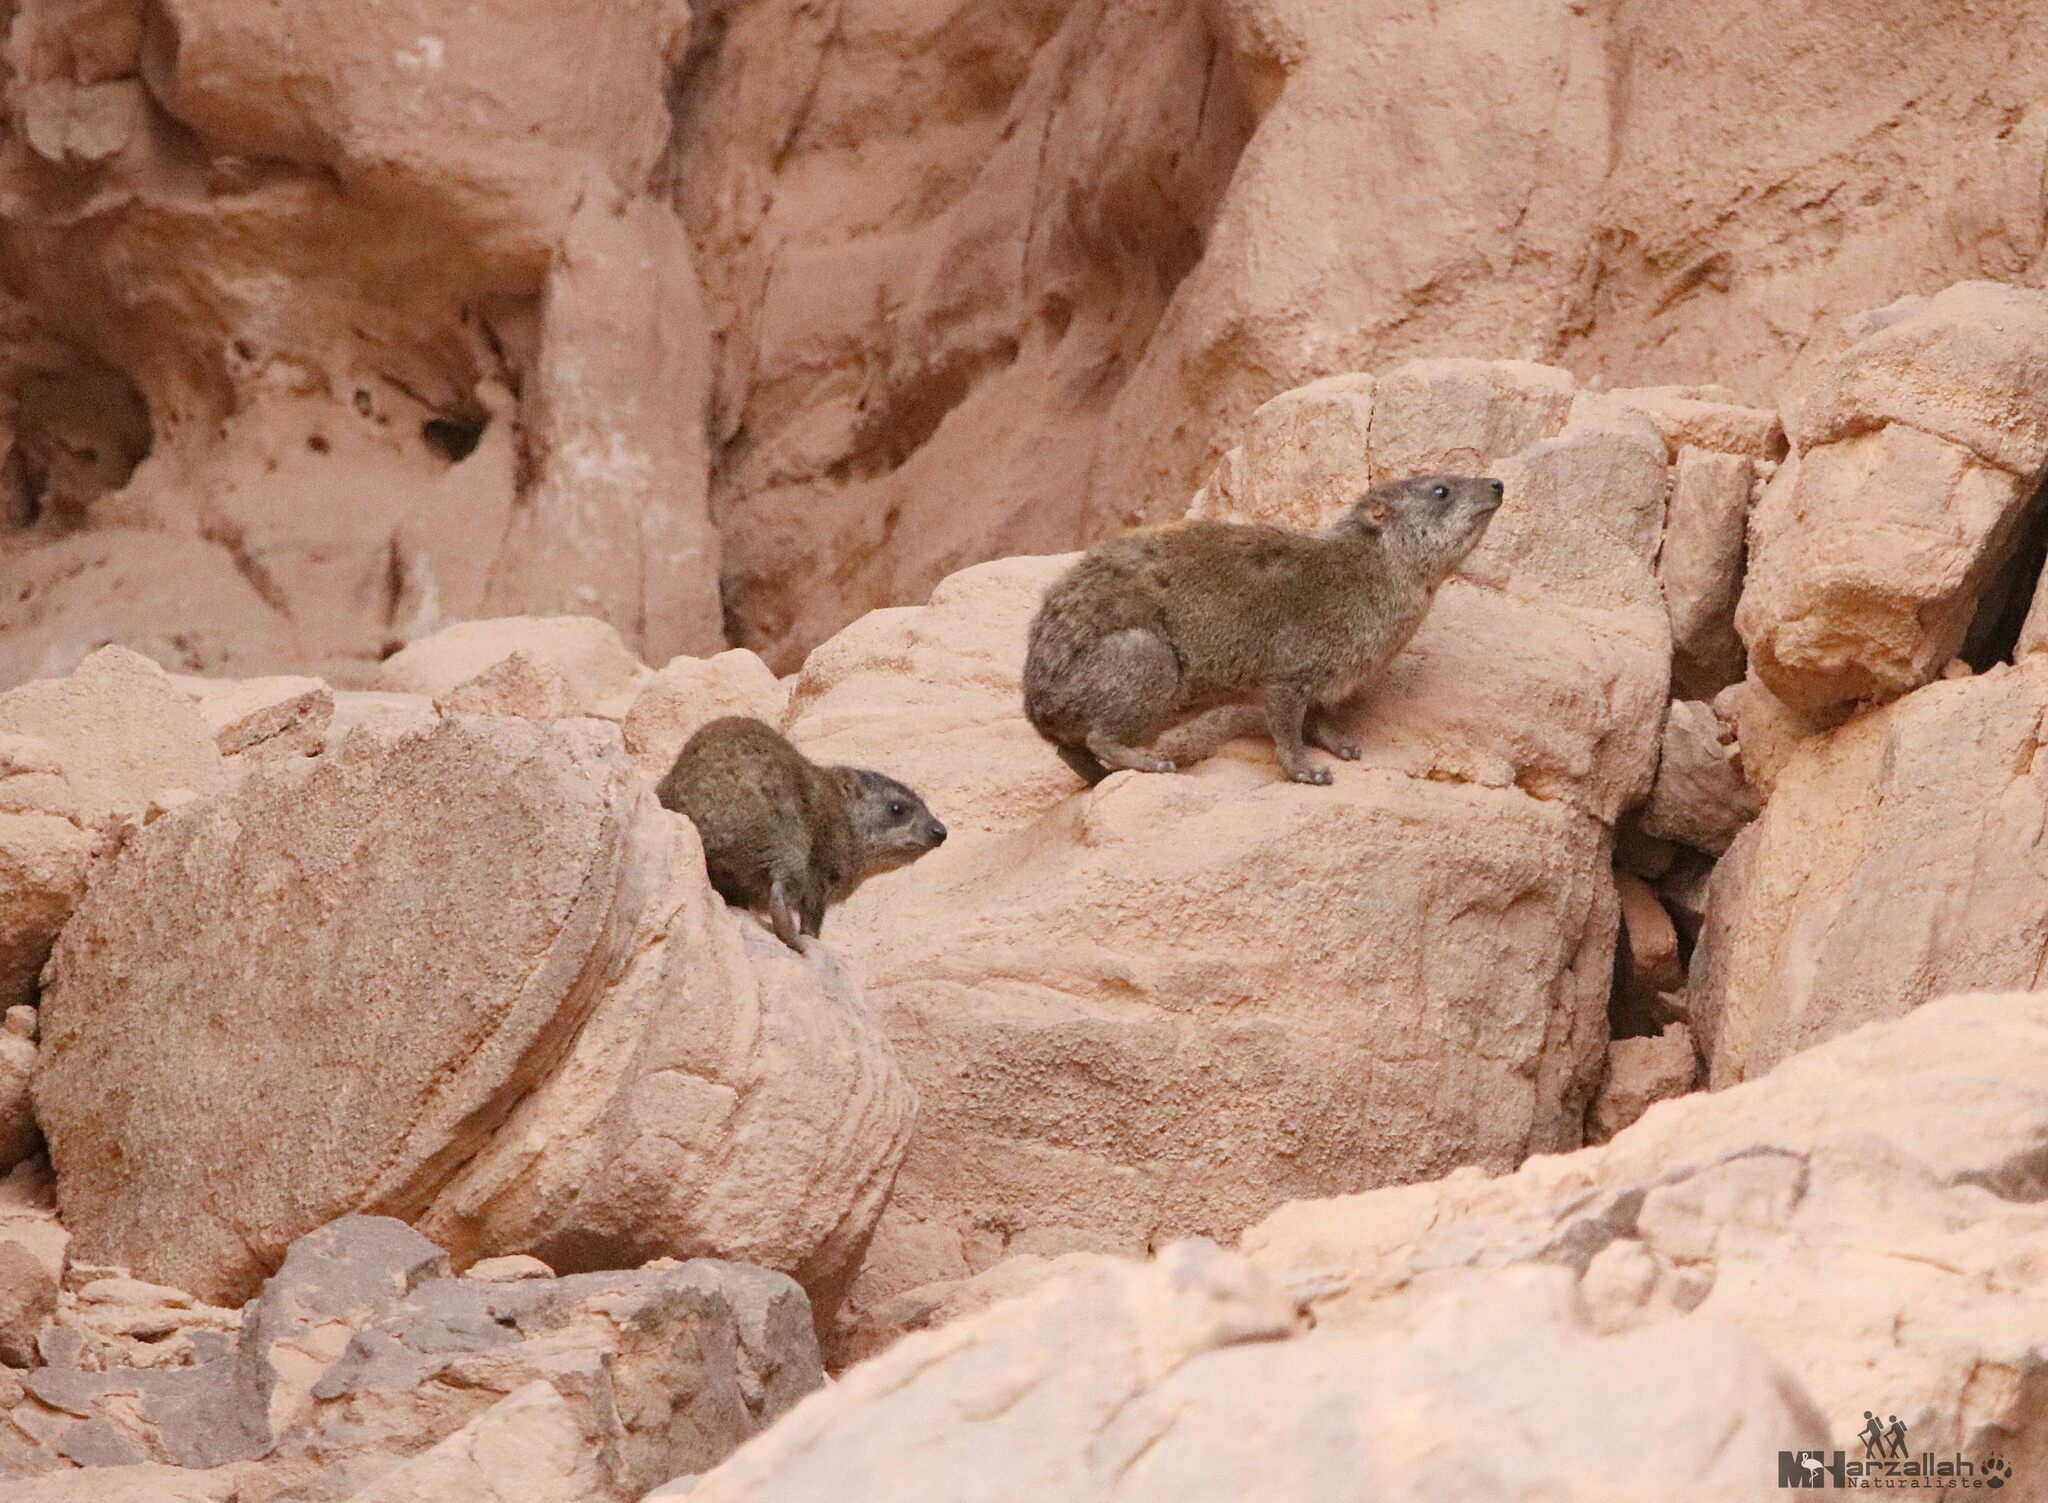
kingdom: Animalia
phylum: Chordata
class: Mammalia
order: Hyracoidea
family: Procaviidae
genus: Procavia
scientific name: Procavia capensis
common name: Rock hyrax
